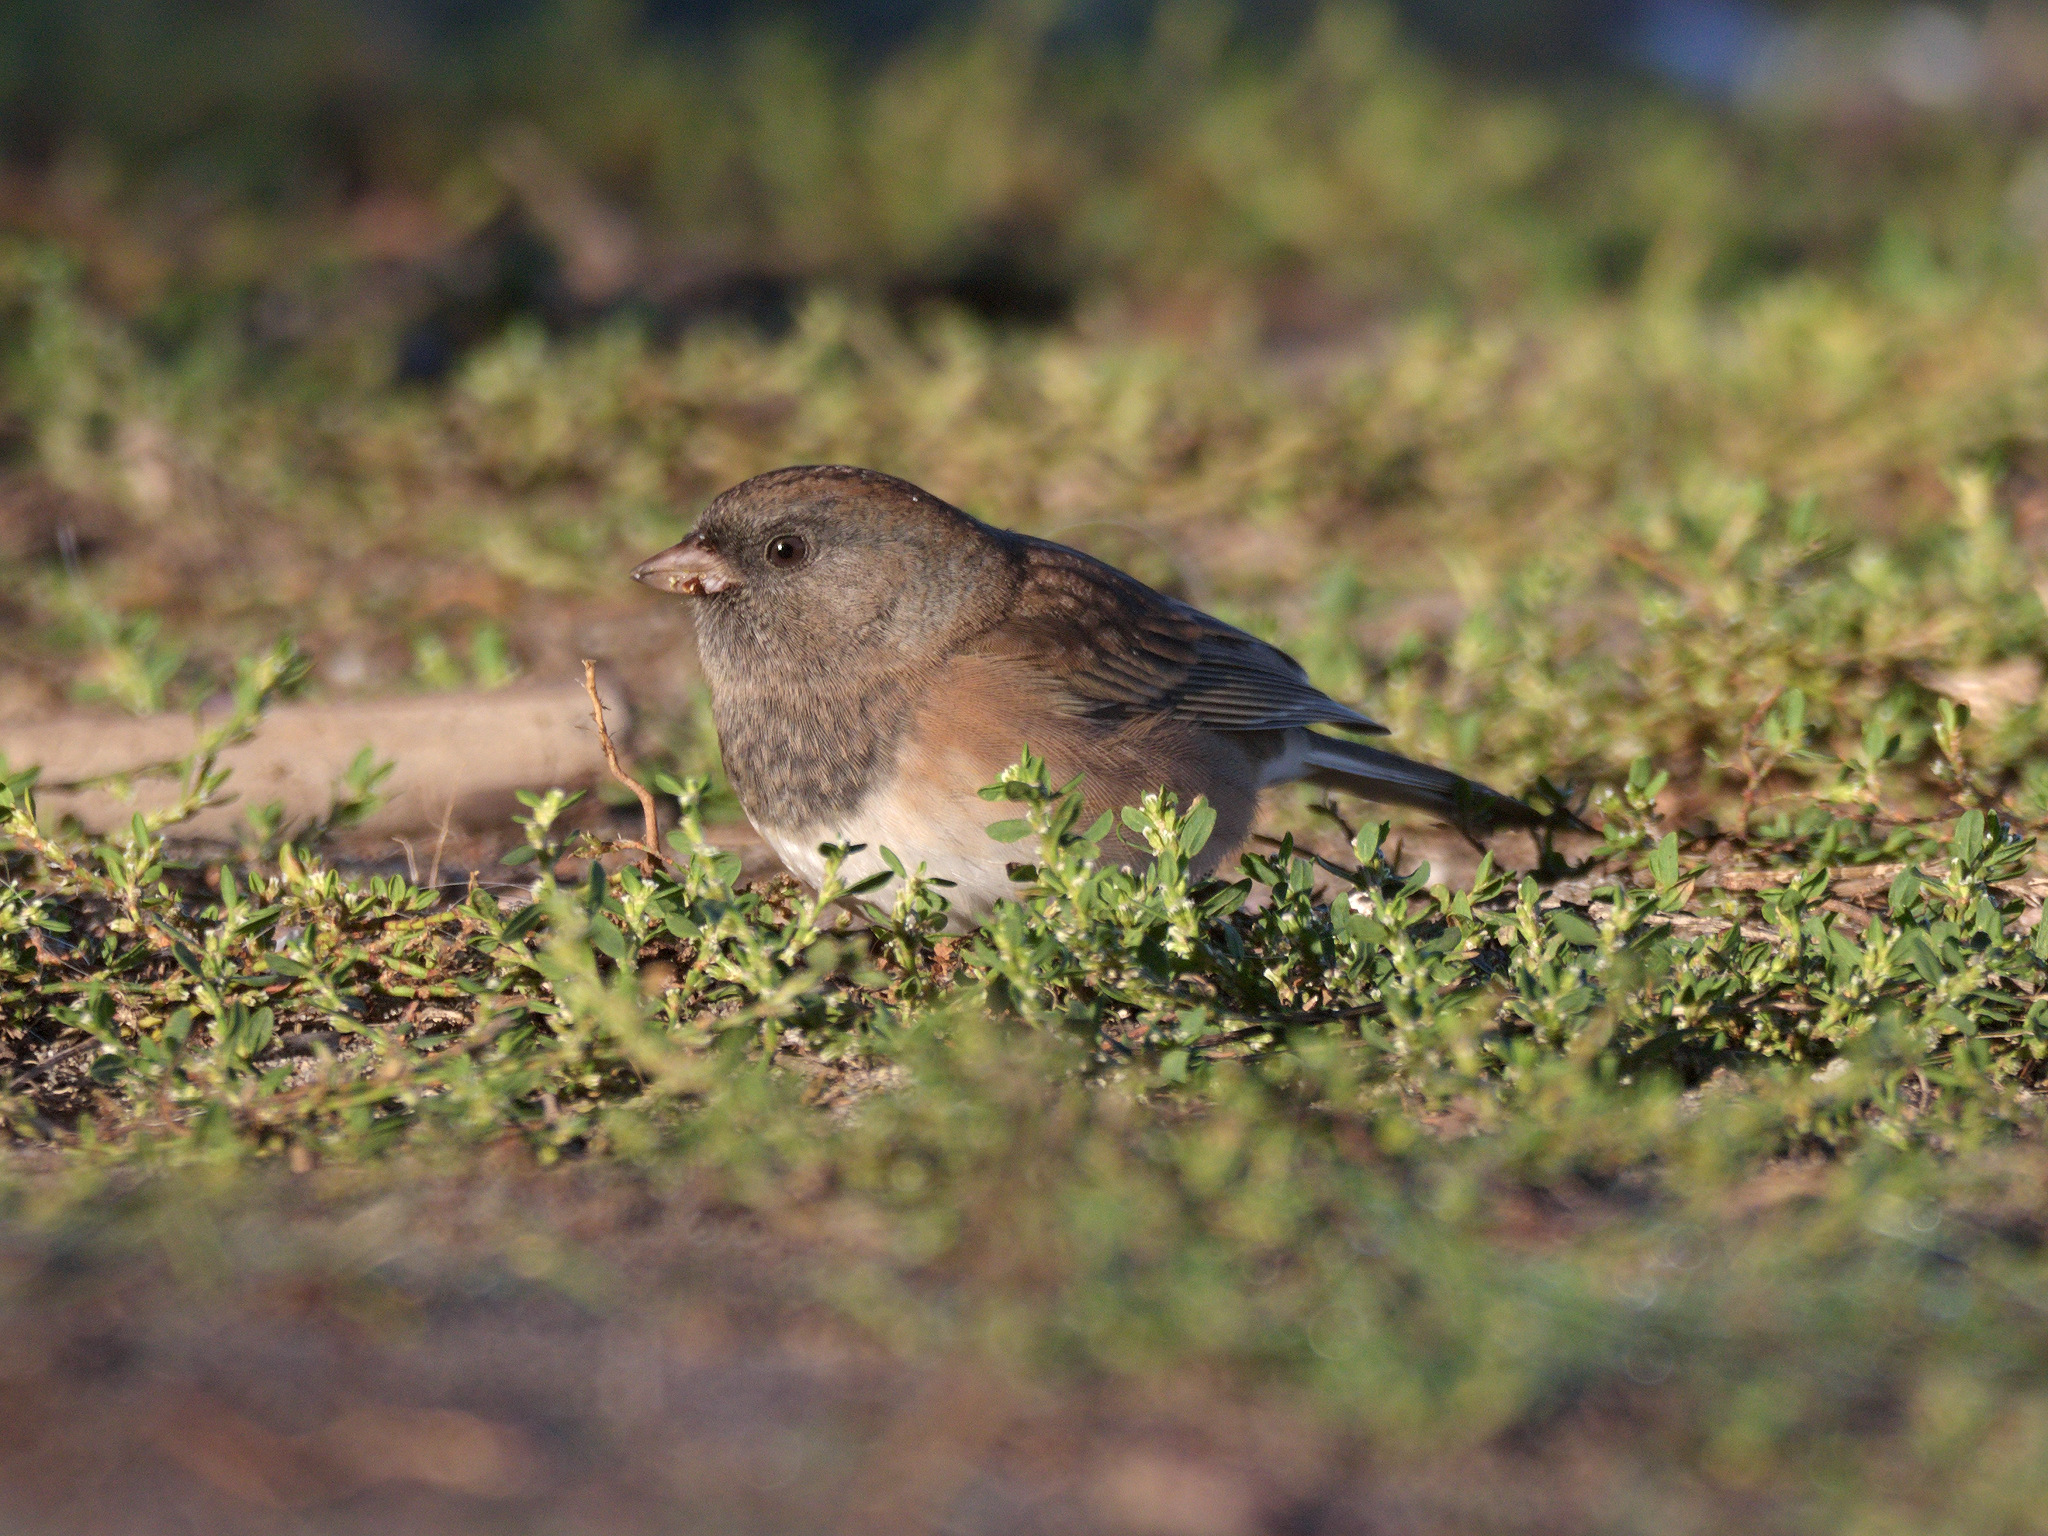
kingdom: Animalia
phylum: Chordata
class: Aves
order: Passeriformes
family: Passerellidae
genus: Junco
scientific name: Junco hyemalis
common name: Dark-eyed junco
